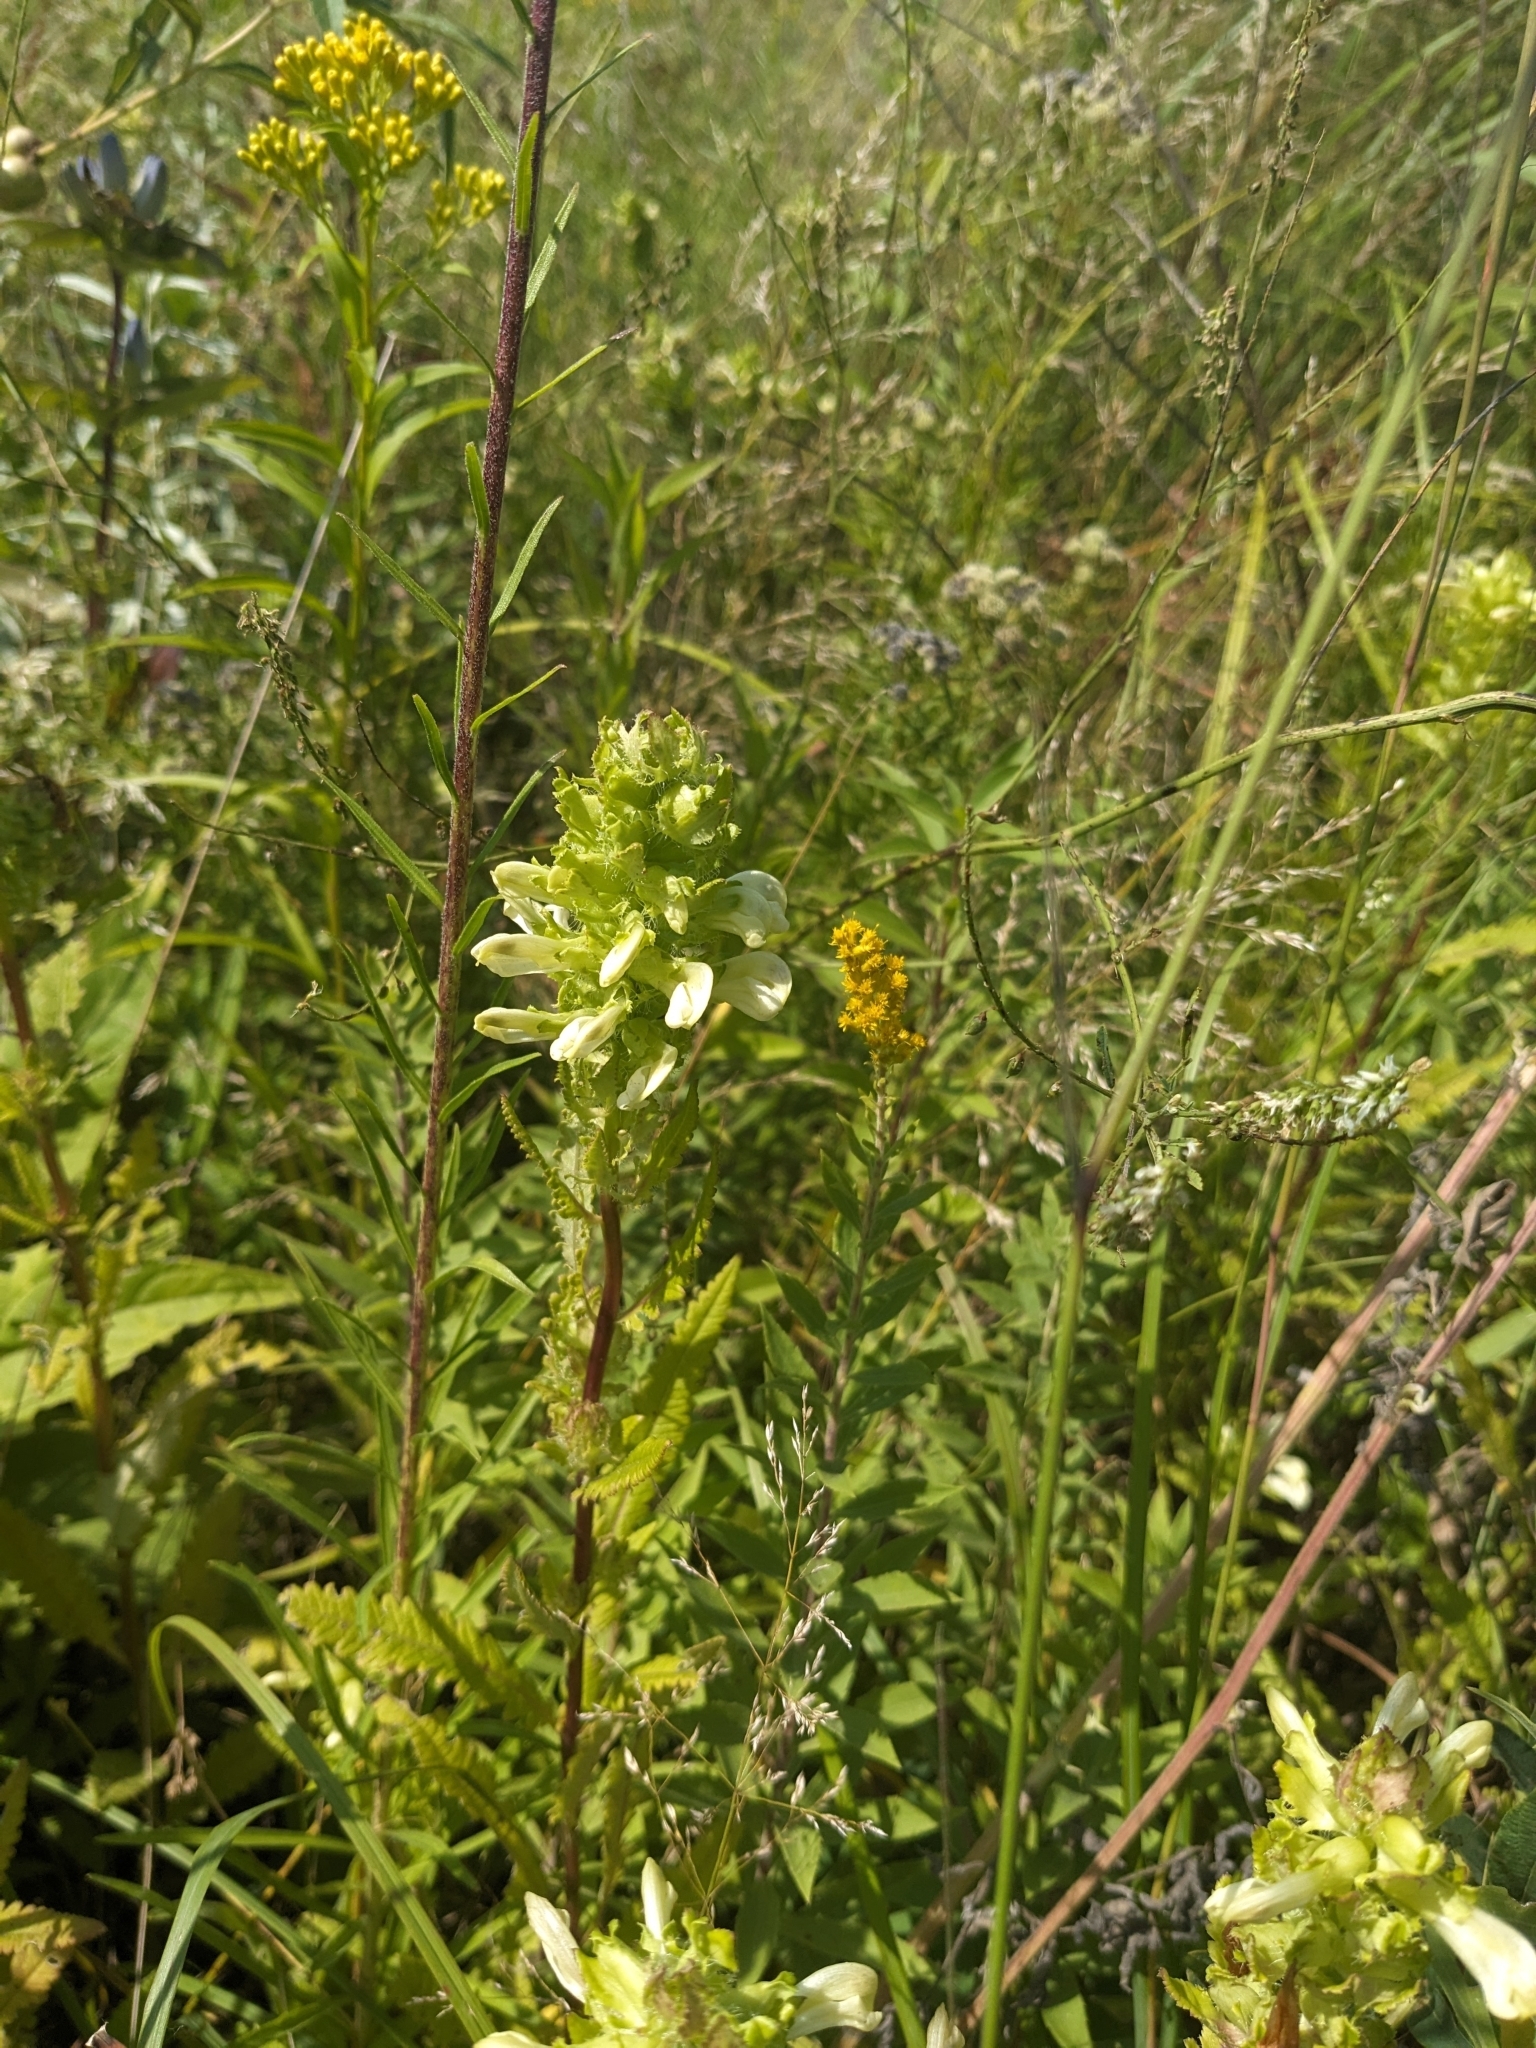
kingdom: Plantae
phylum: Tracheophyta
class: Magnoliopsida
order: Lamiales
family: Orobanchaceae
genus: Pedicularis
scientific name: Pedicularis lanceolata
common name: Swamp lousewort
